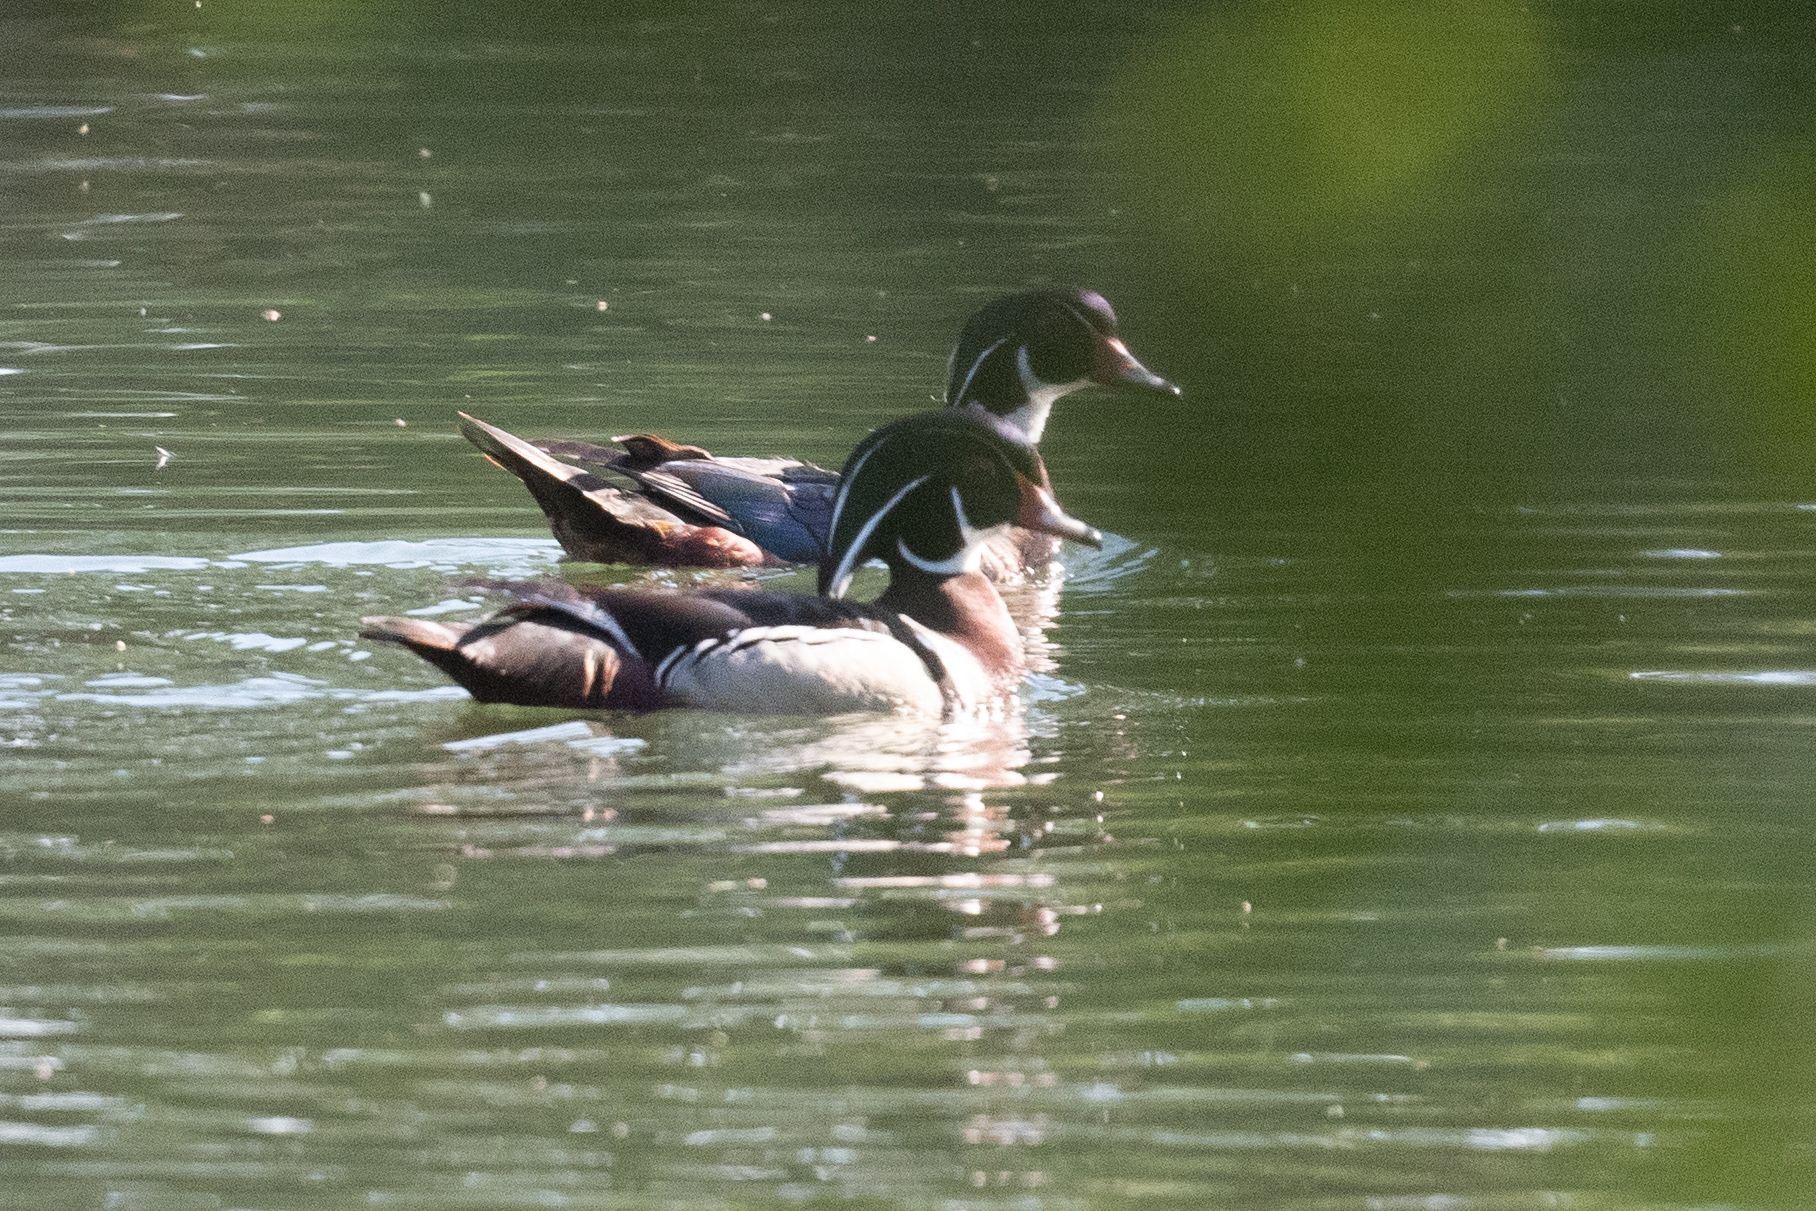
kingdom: Animalia
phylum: Chordata
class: Aves
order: Anseriformes
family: Anatidae
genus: Aix
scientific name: Aix sponsa
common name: Wood duck
